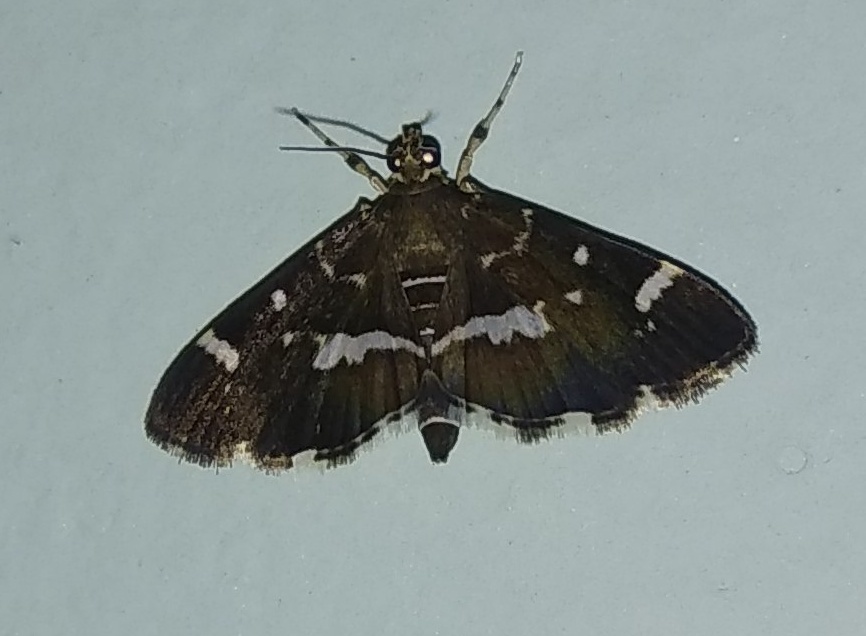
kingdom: Animalia
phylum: Arthropoda
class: Insecta
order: Lepidoptera
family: Crambidae
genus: Hymenia
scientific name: Hymenia perspectalis
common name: Spotted beet webworm
